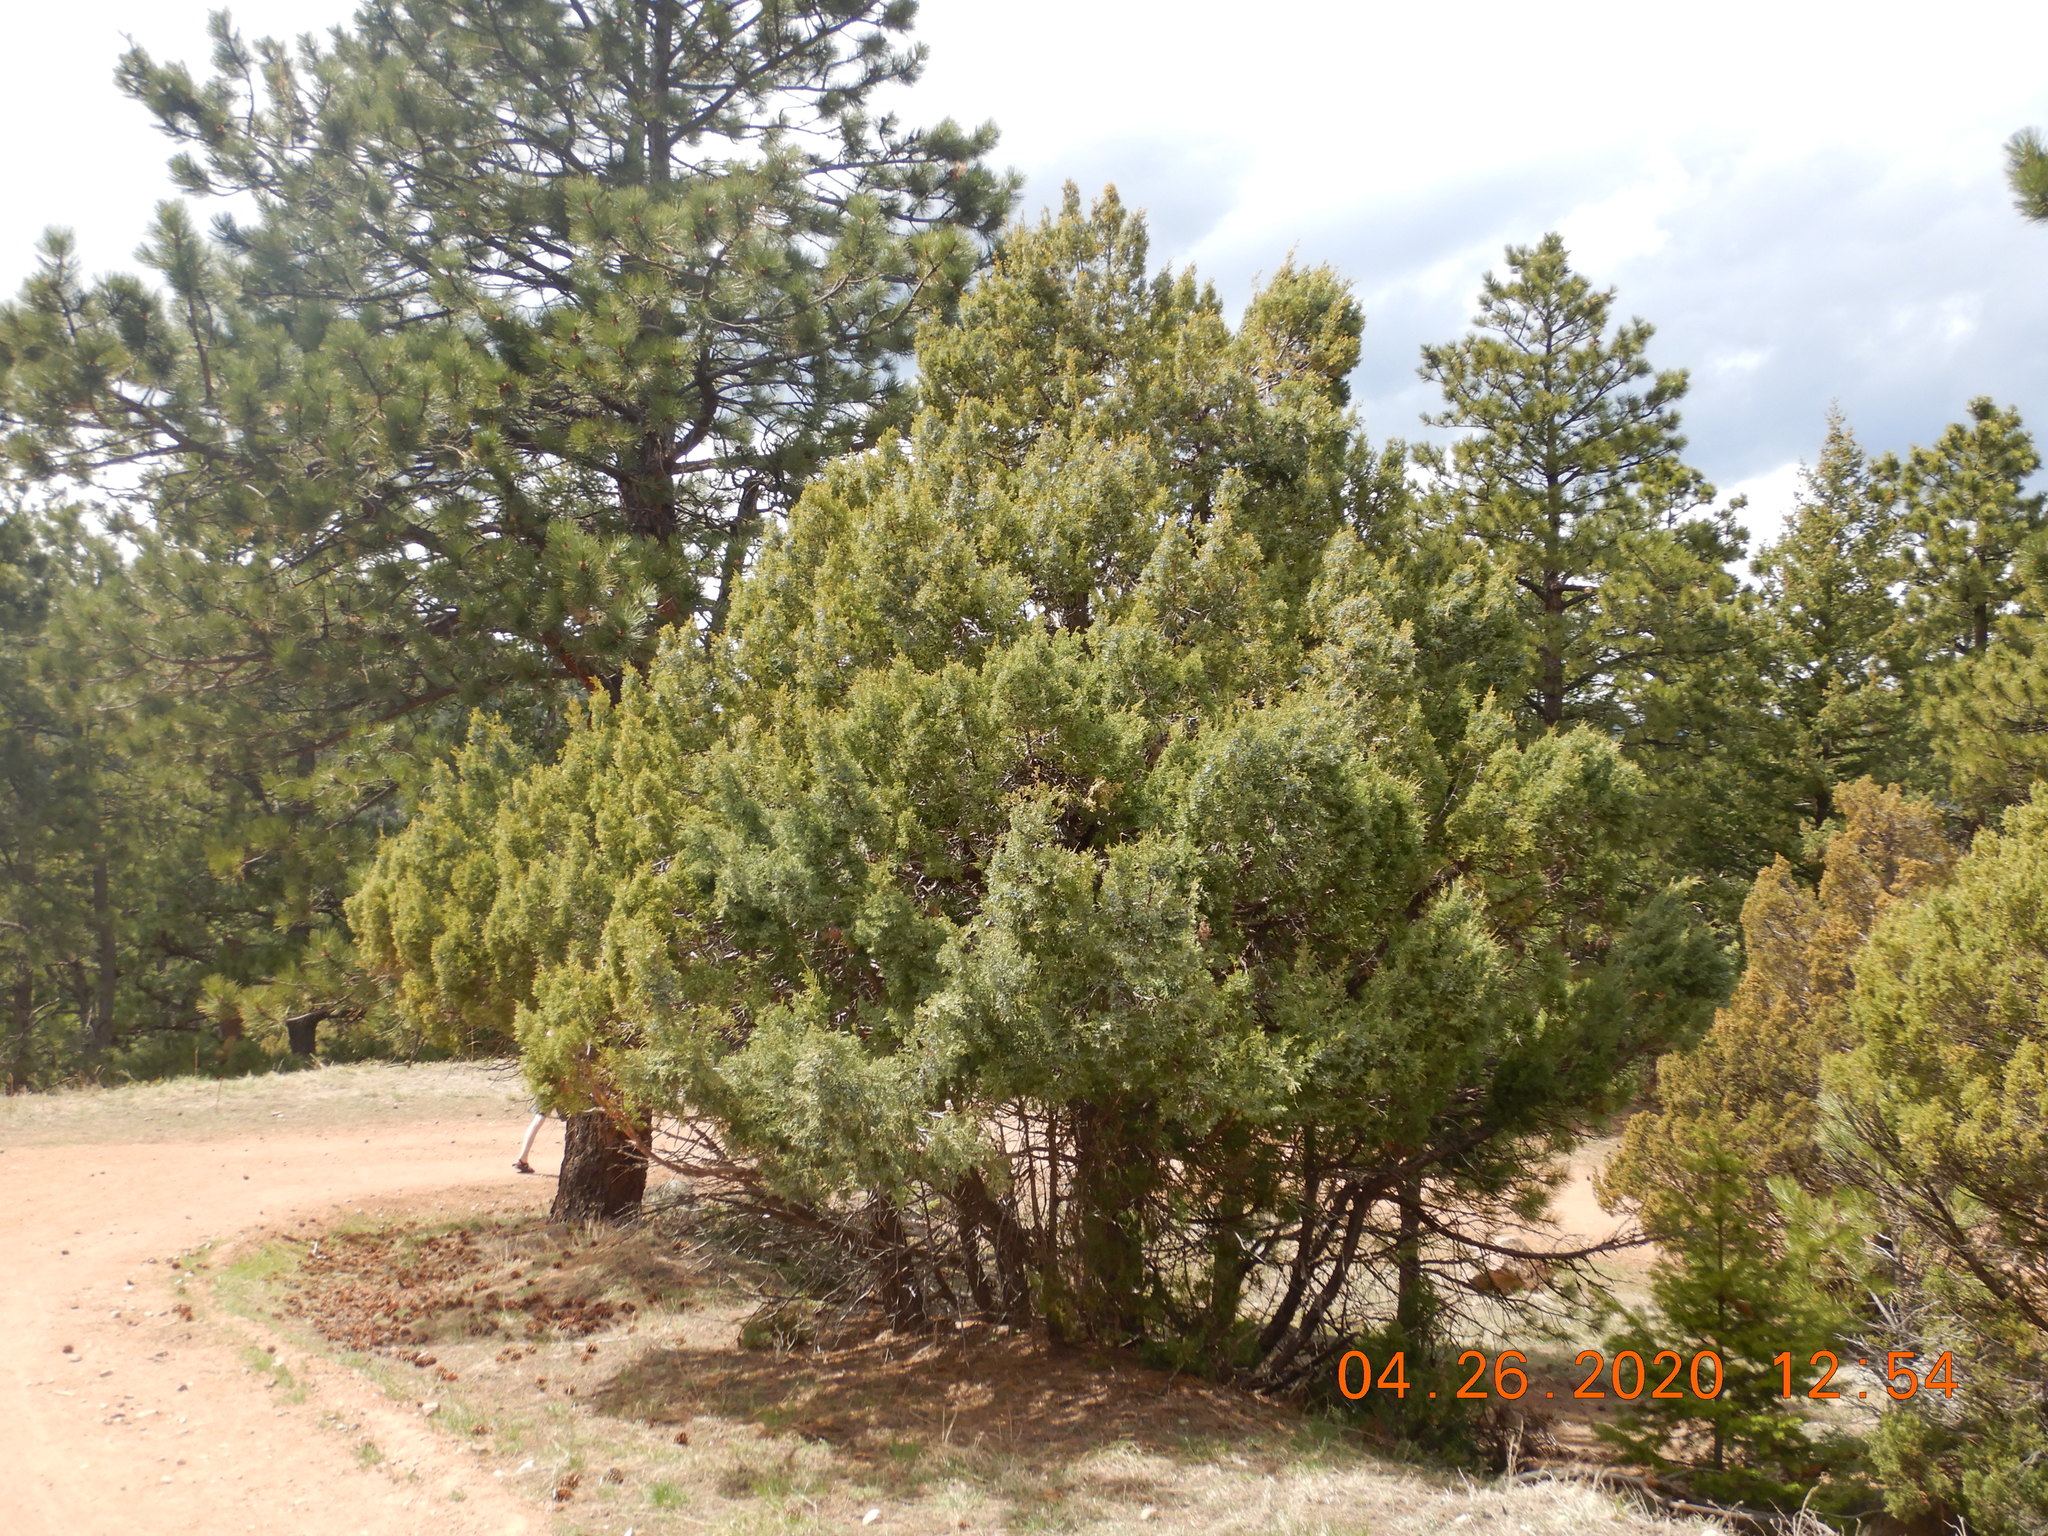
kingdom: Plantae
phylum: Tracheophyta
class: Pinopsida
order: Pinales
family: Cupressaceae
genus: Juniperus
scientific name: Juniperus scopulorum
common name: Rocky mountain juniper
